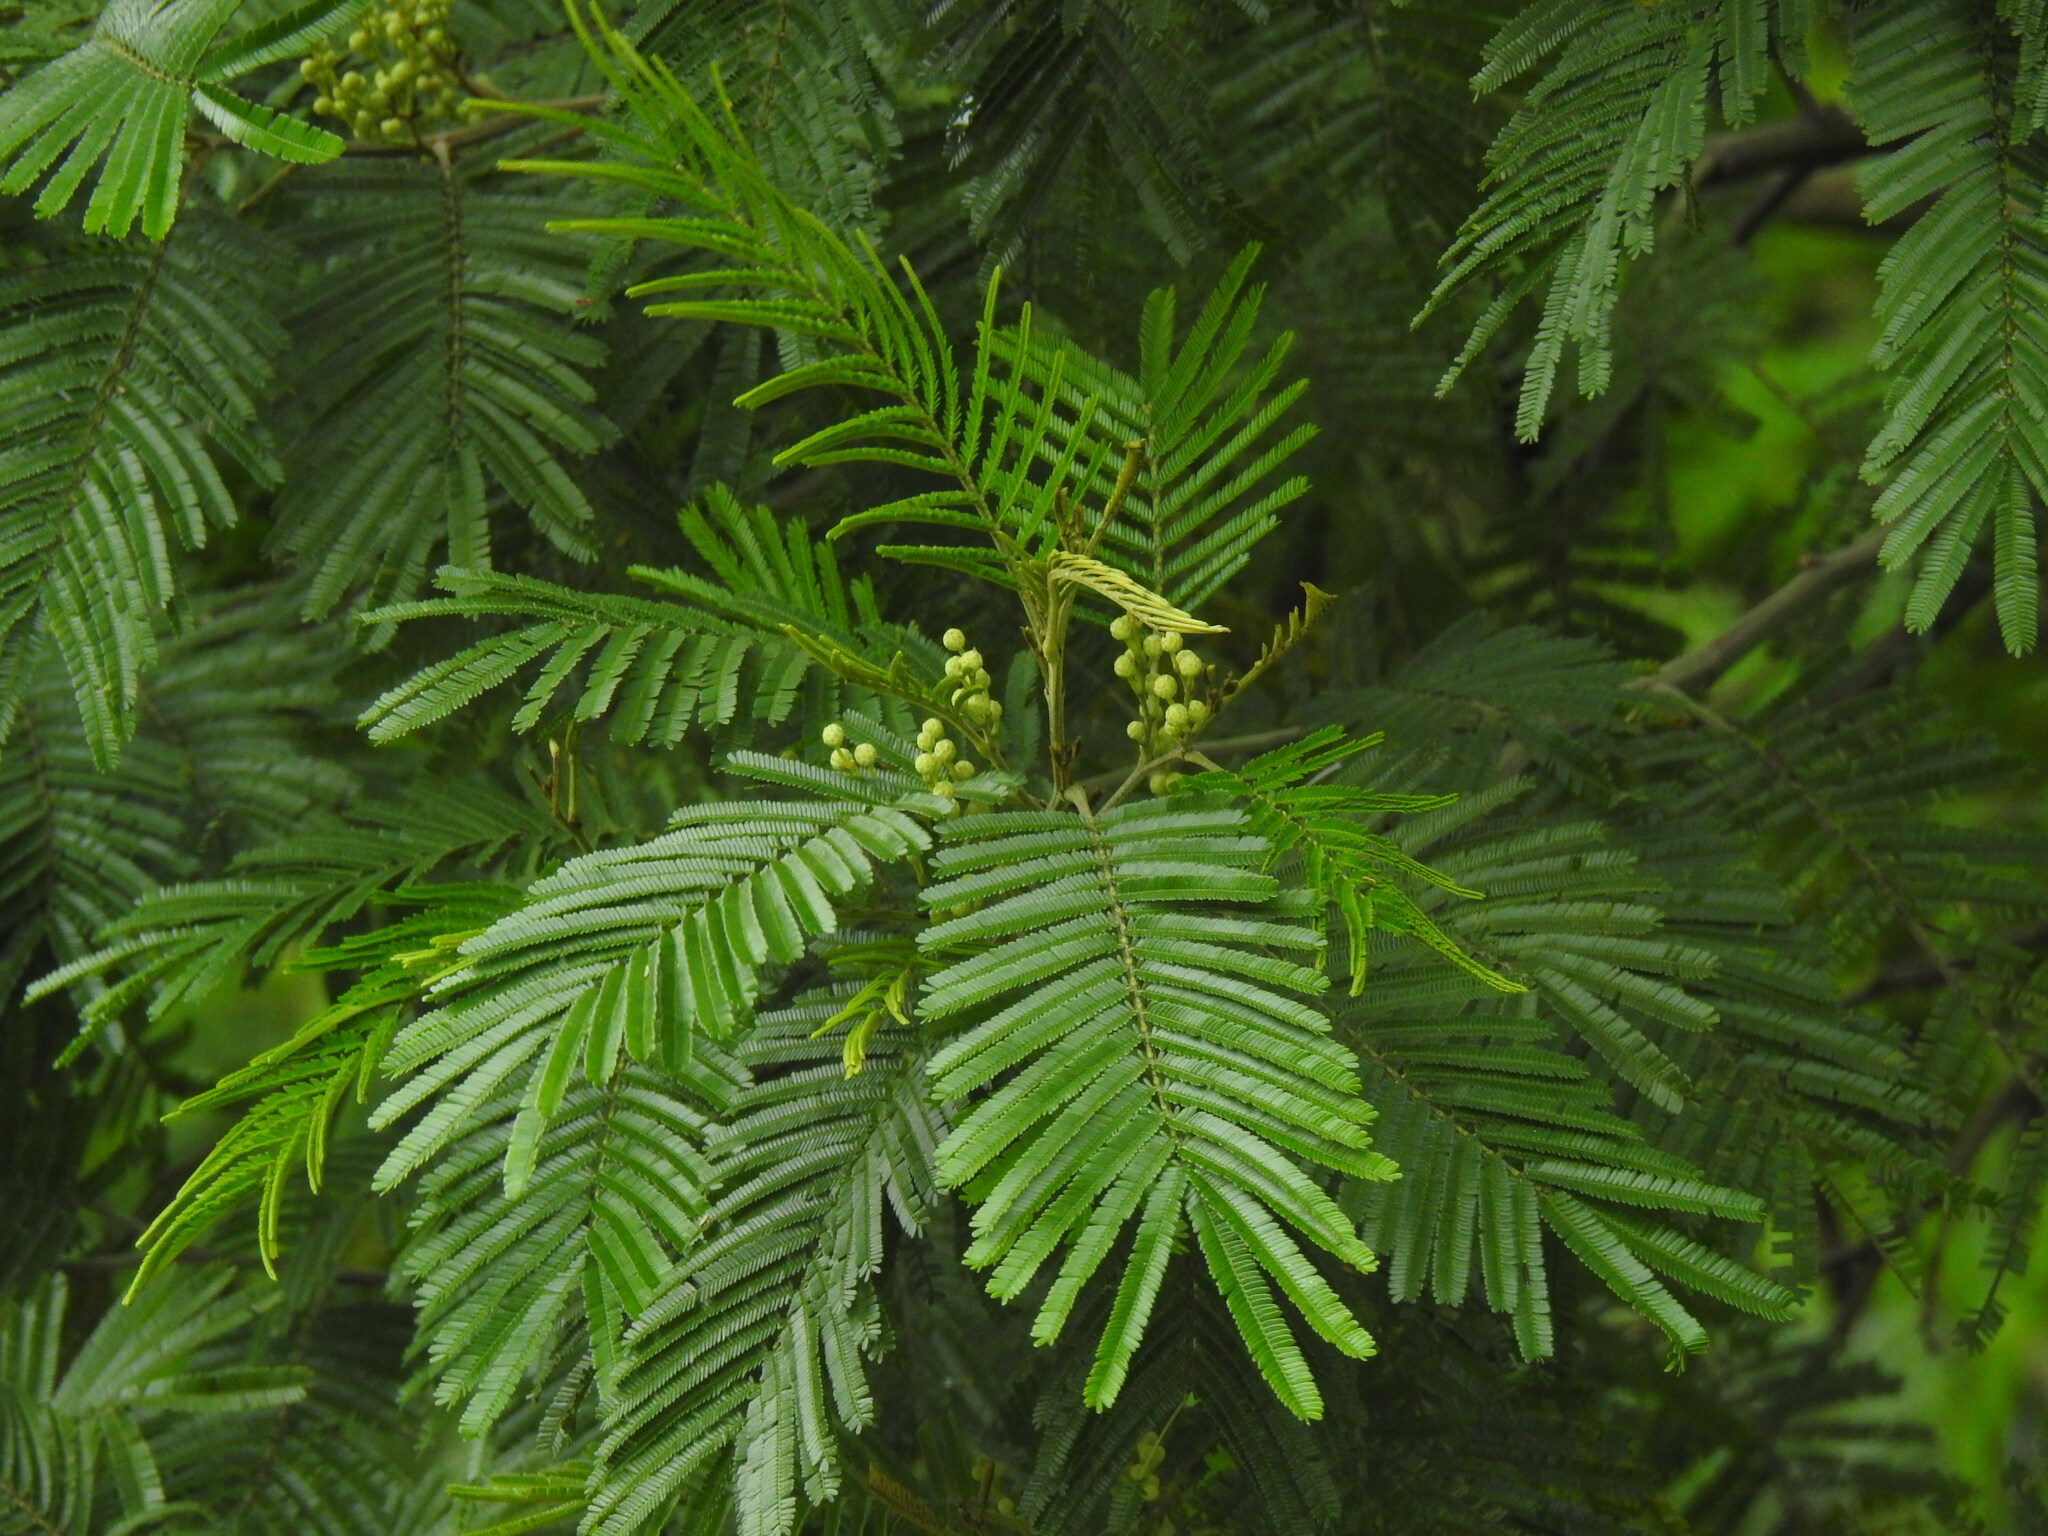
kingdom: Plantae
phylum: Tracheophyta
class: Magnoliopsida
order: Fabales
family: Fabaceae
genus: Acacia
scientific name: Acacia mearnsii
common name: Black wattle
